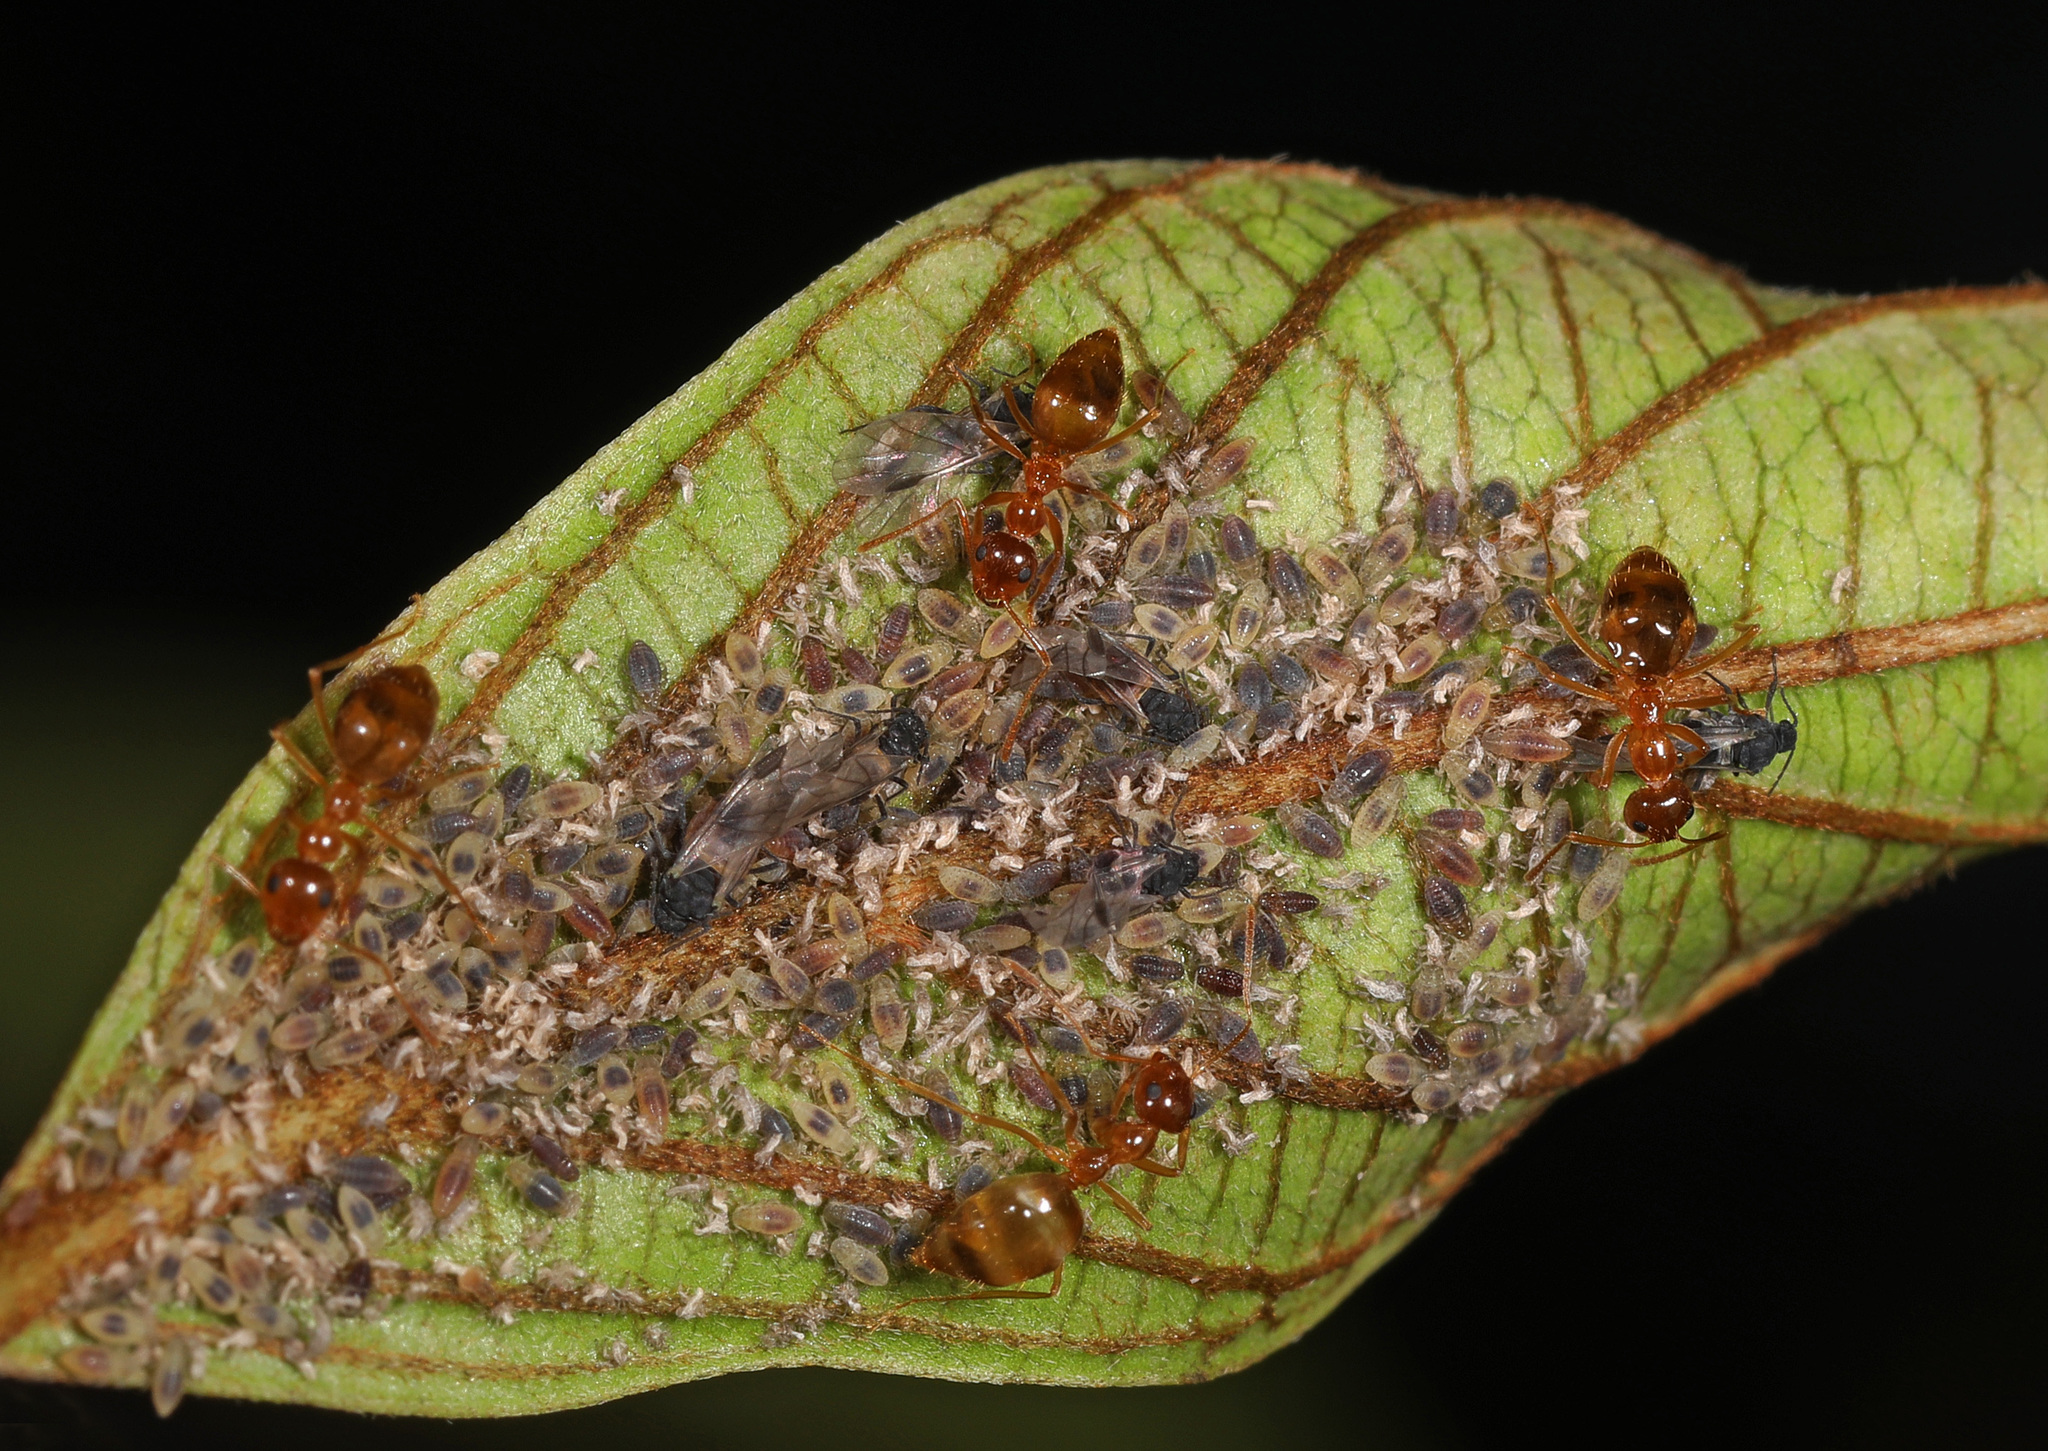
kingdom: Animalia
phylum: Arthropoda
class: Insecta
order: Hymenoptera
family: Formicidae
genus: Prenolepis
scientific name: Prenolepis imparis
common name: Small honey ant
